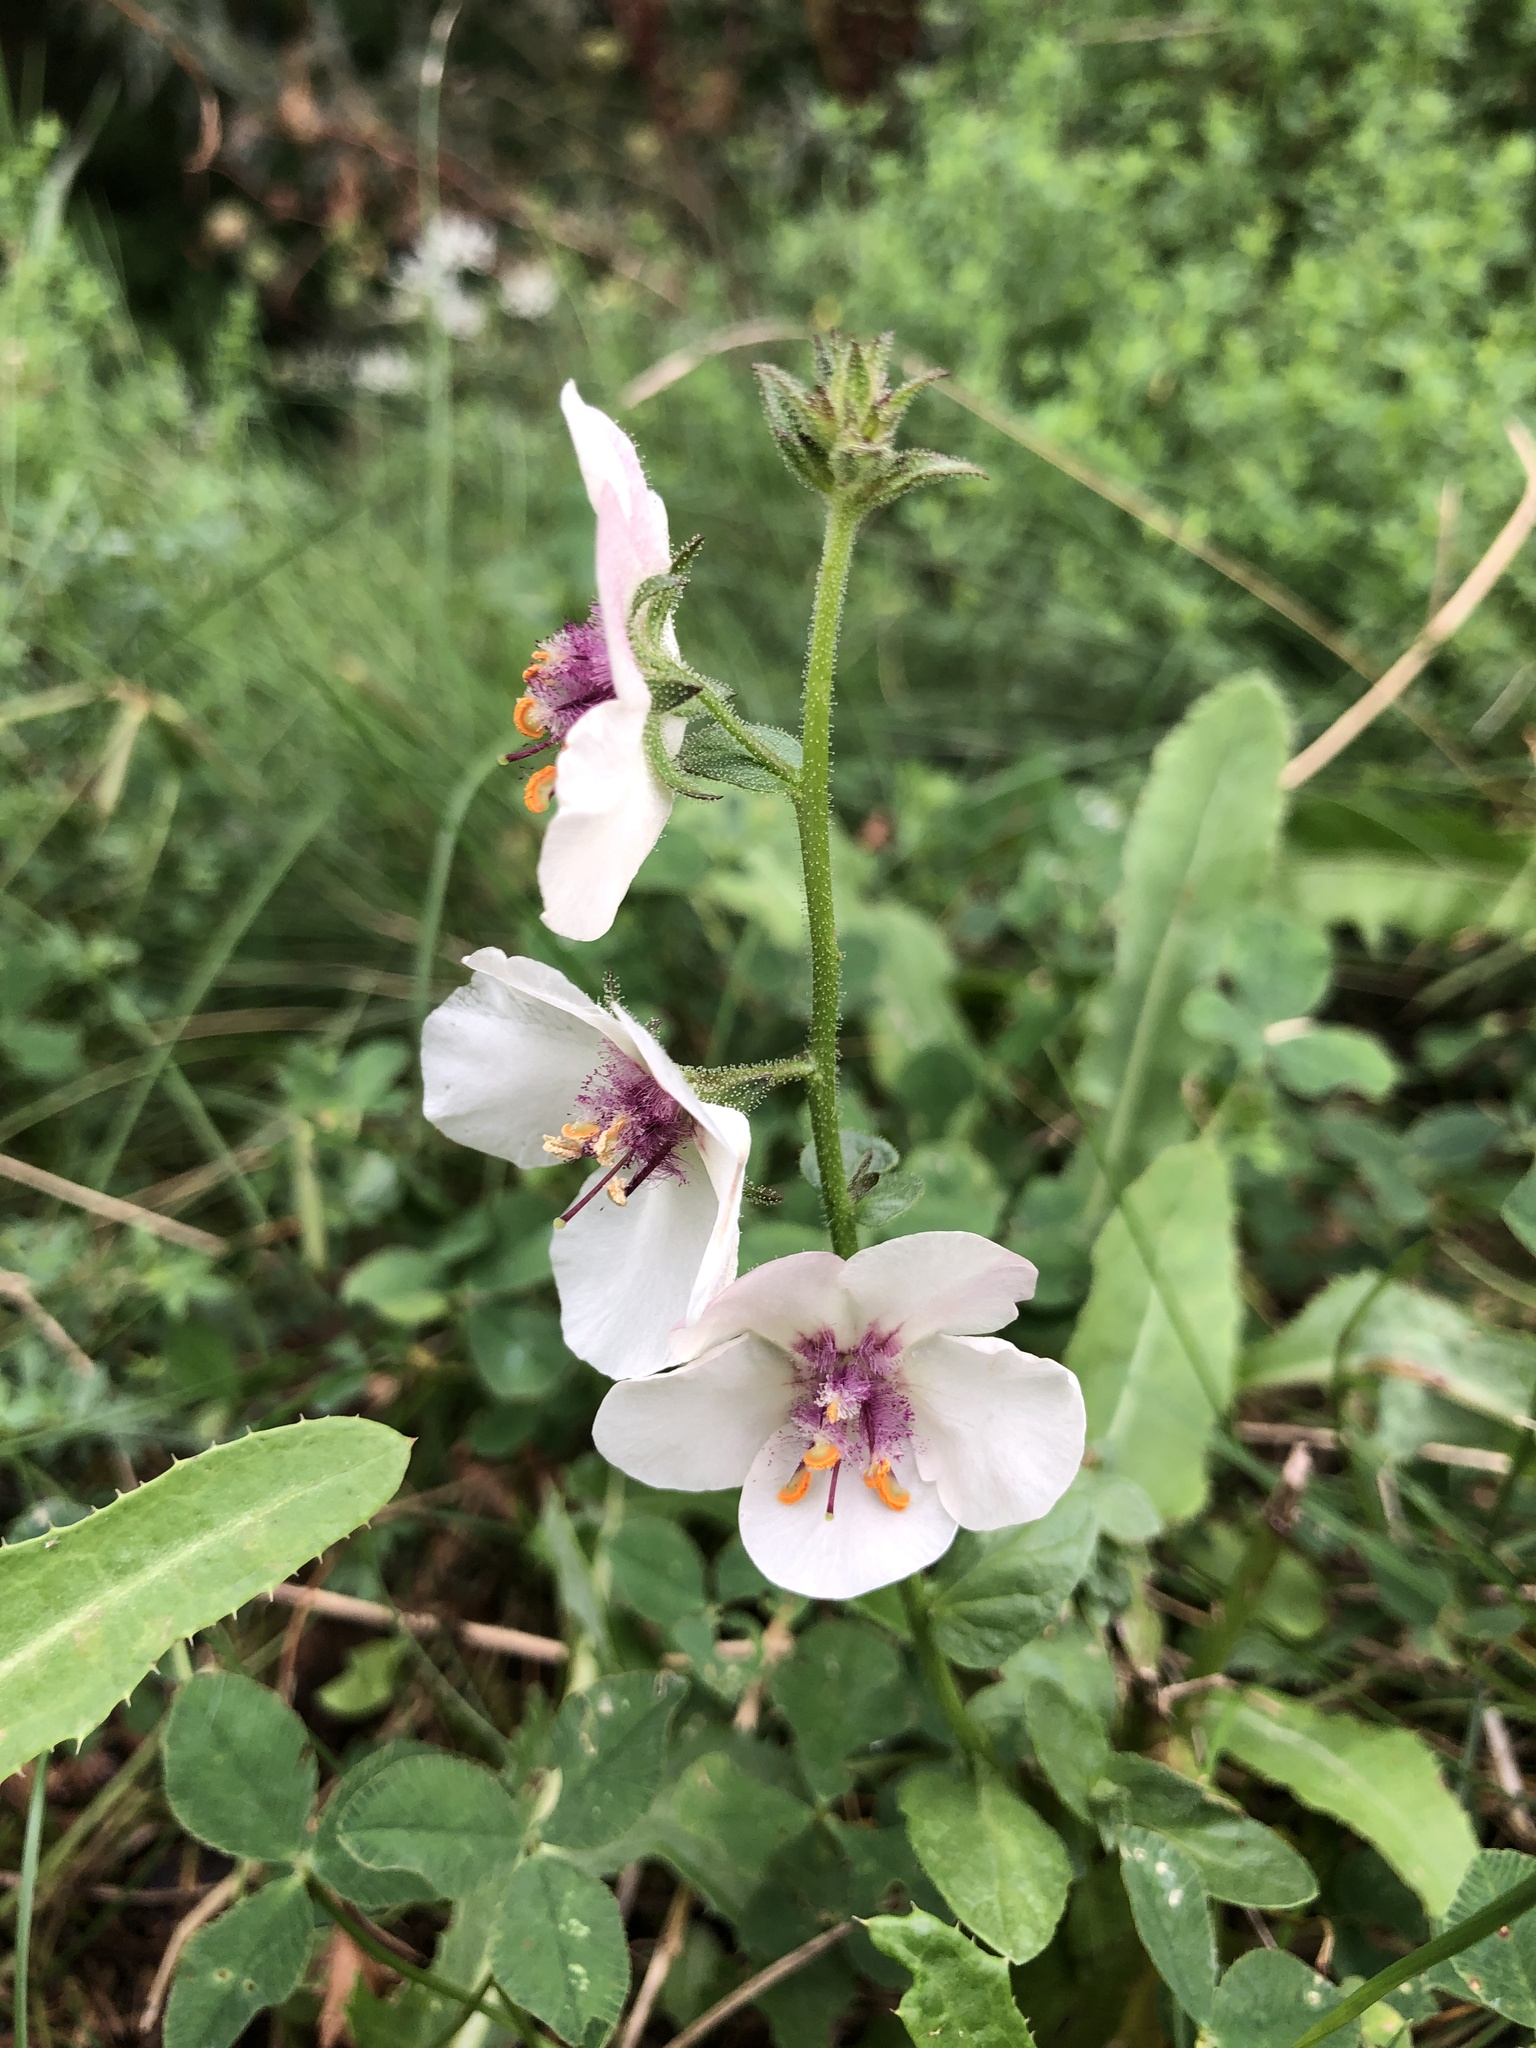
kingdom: Plantae
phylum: Tracheophyta
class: Magnoliopsida
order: Lamiales
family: Scrophulariaceae
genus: Verbascum
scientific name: Verbascum blattaria
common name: Moth mullein
